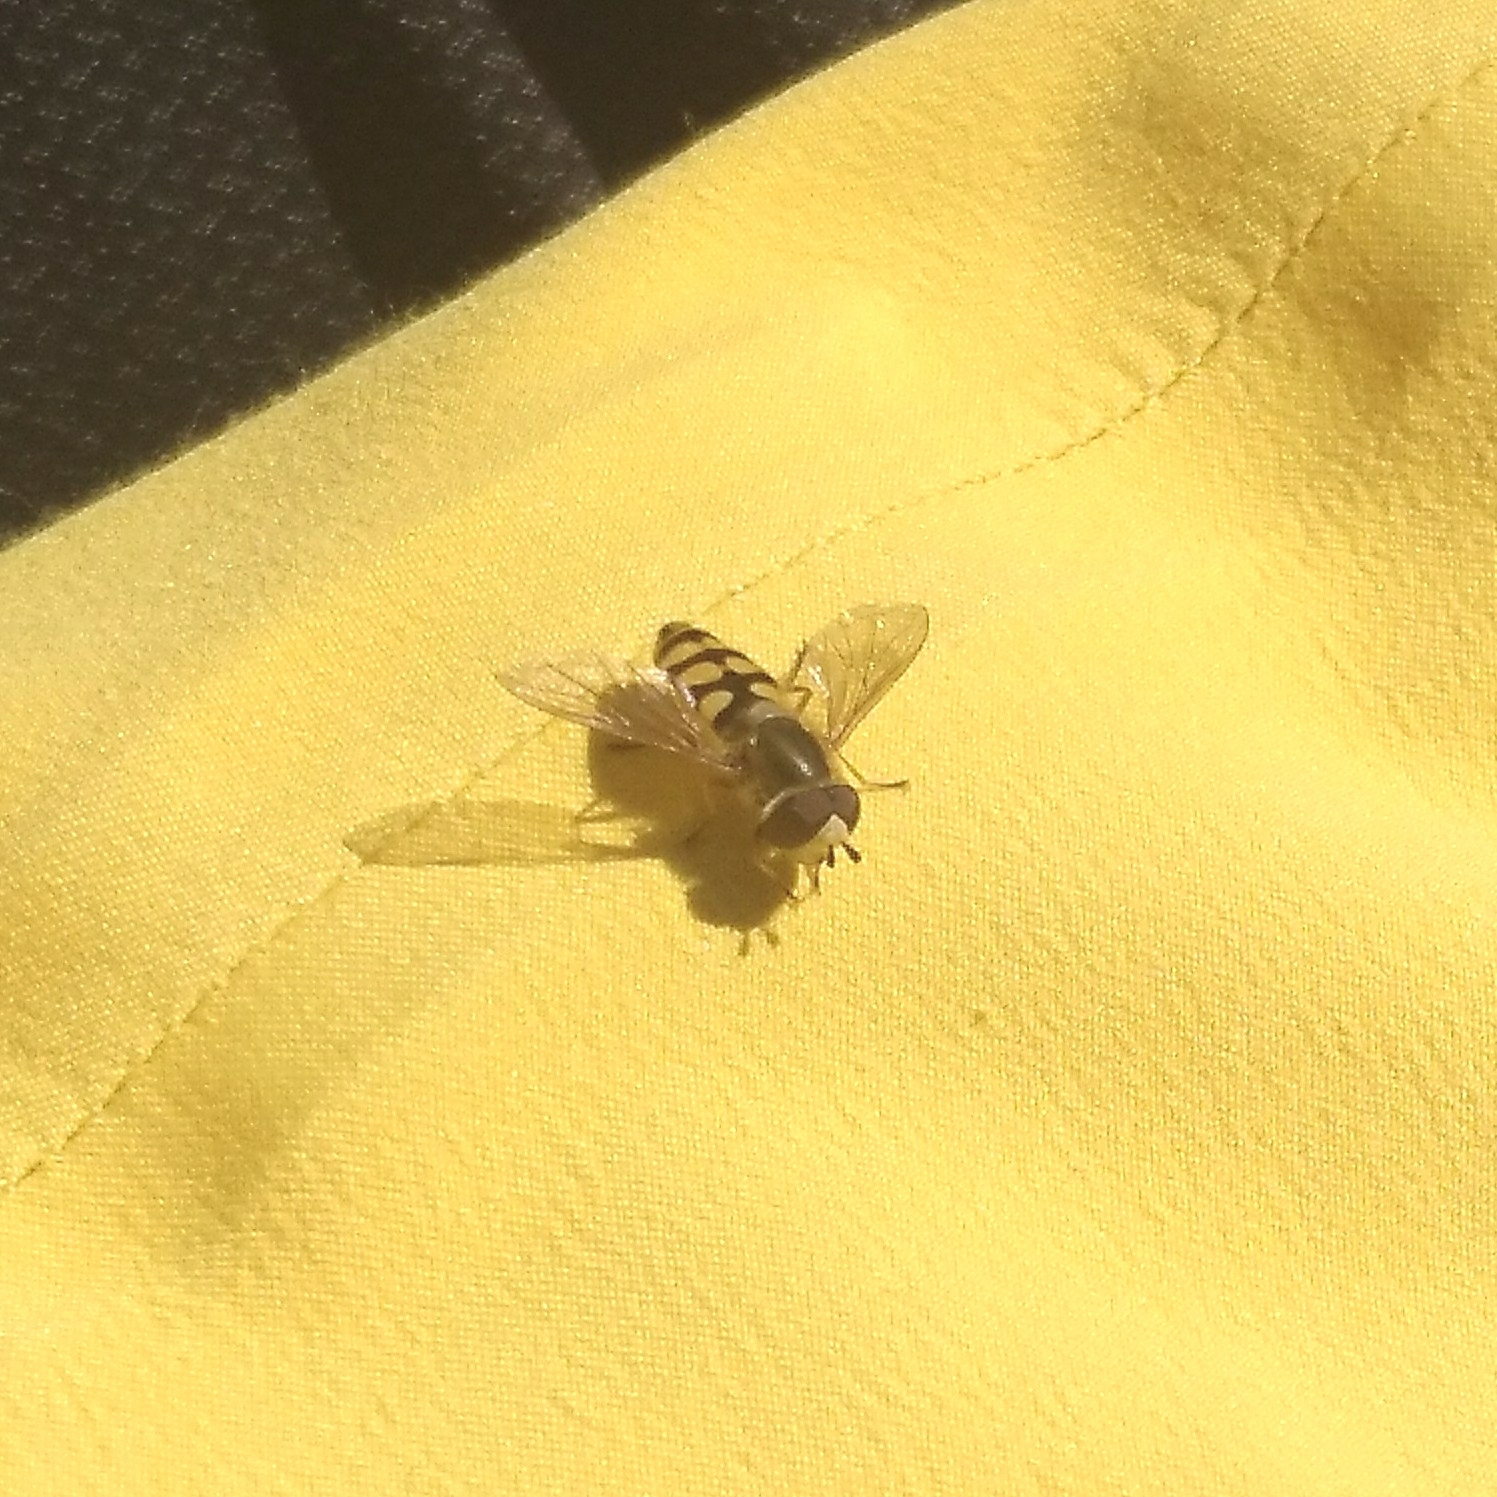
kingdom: Animalia
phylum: Arthropoda
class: Insecta
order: Diptera
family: Syrphidae
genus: Eupeodes
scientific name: Eupeodes corollae
